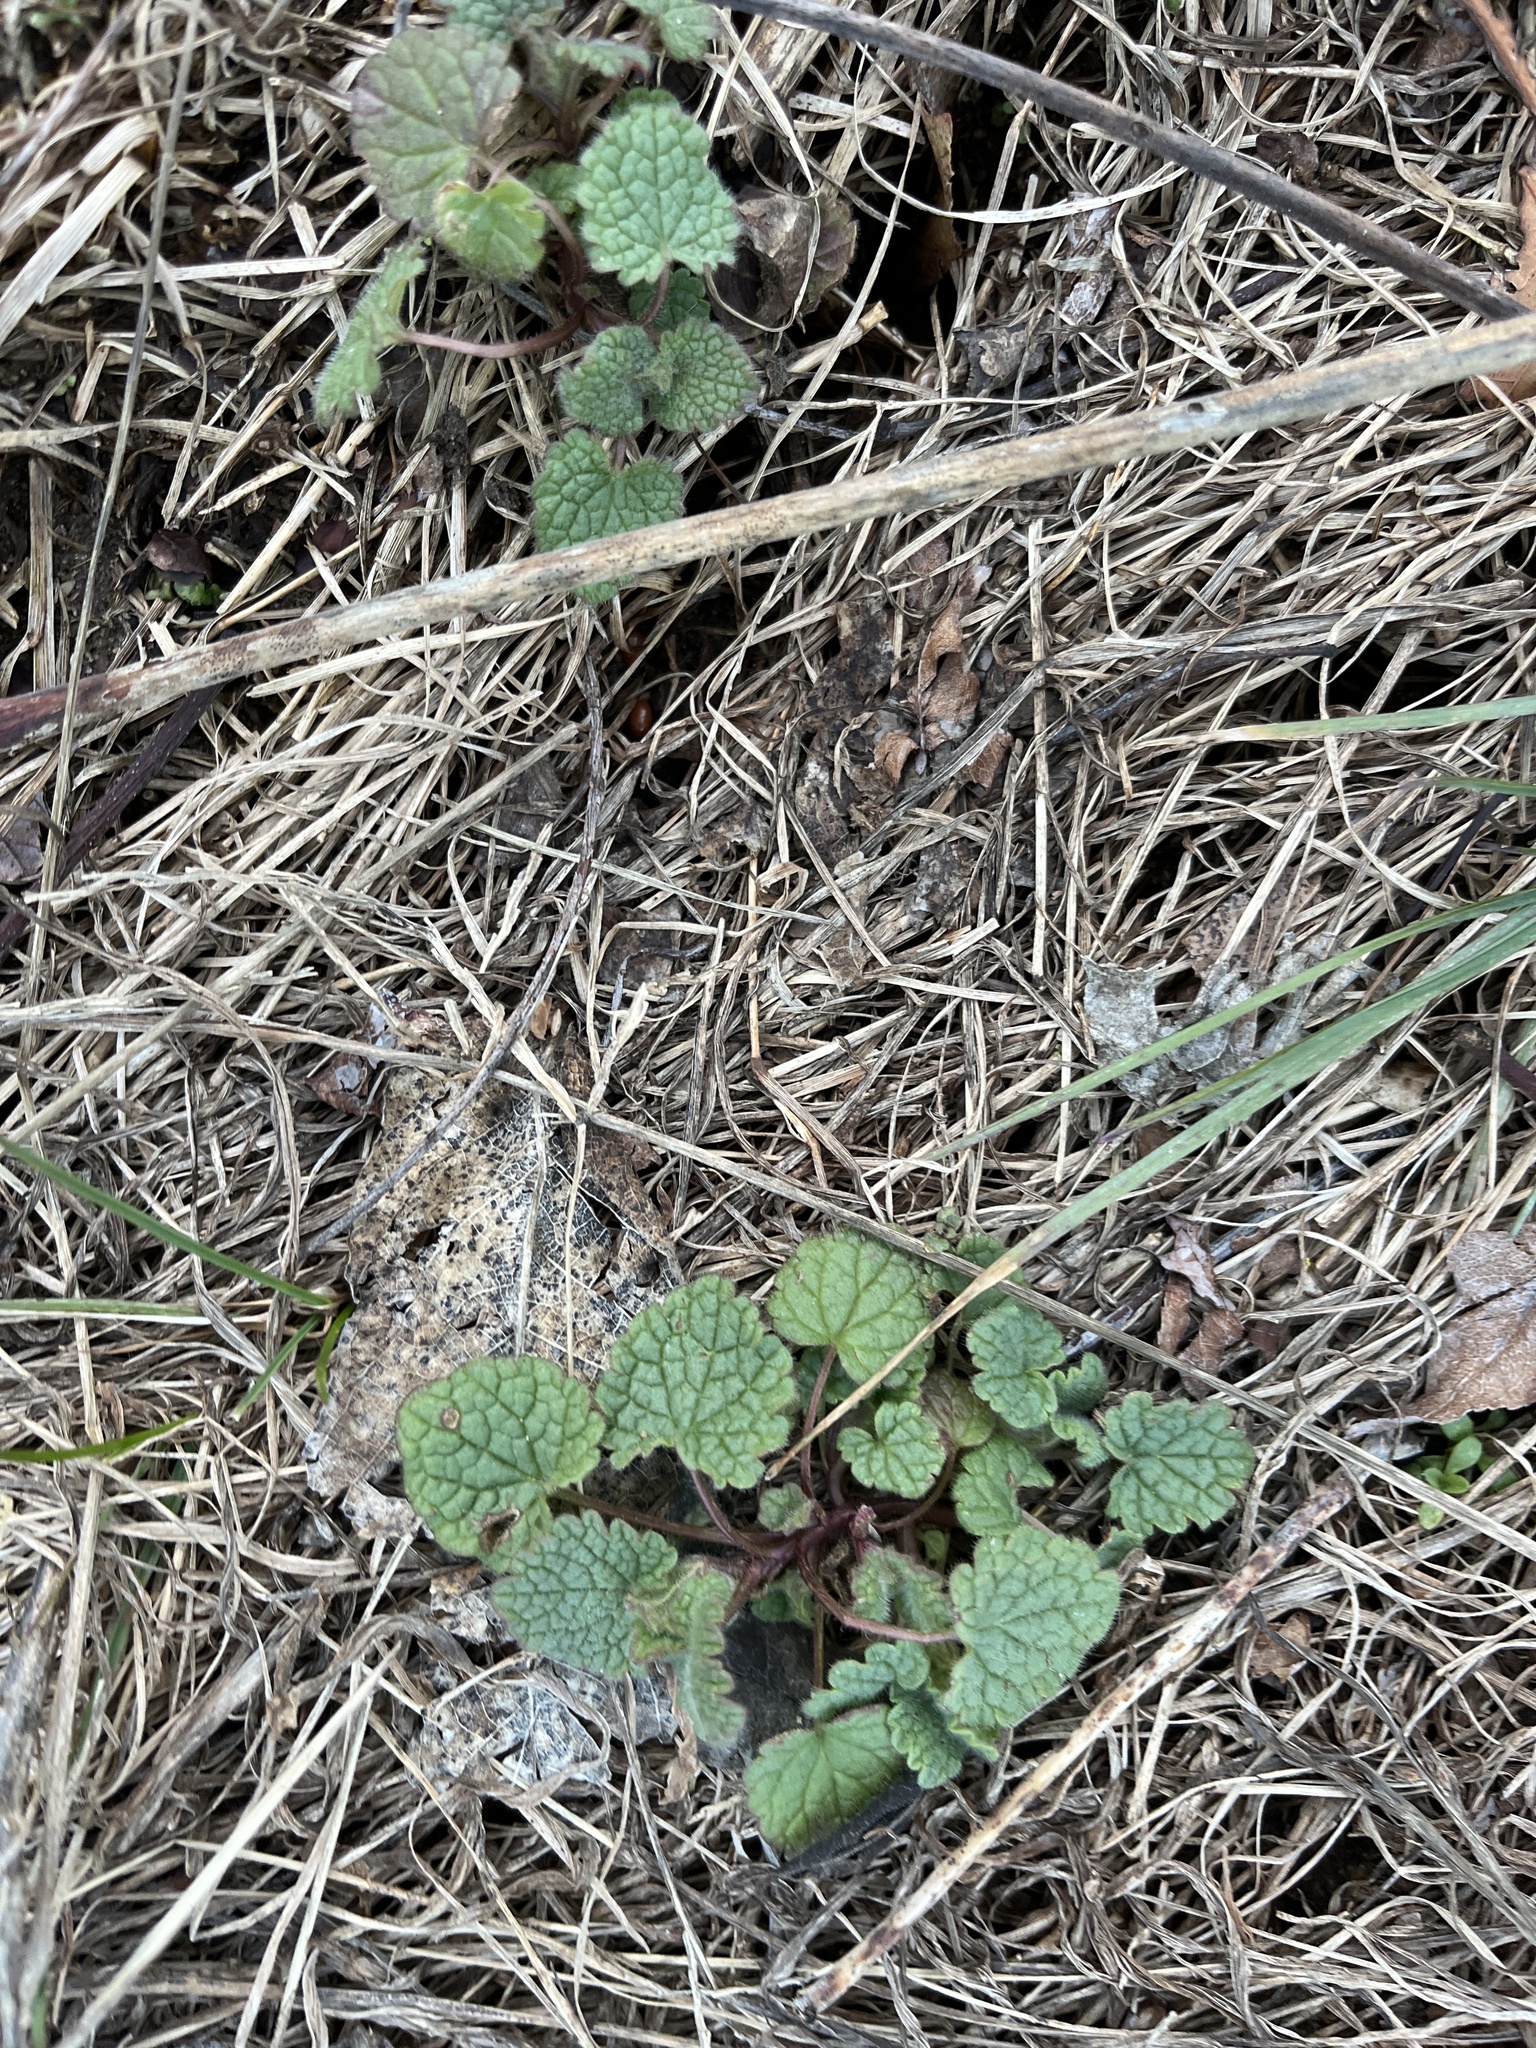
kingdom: Plantae
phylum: Tracheophyta
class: Magnoliopsida
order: Lamiales
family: Lamiaceae
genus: Lamium
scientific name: Lamium purpureum
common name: Red dead-nettle
